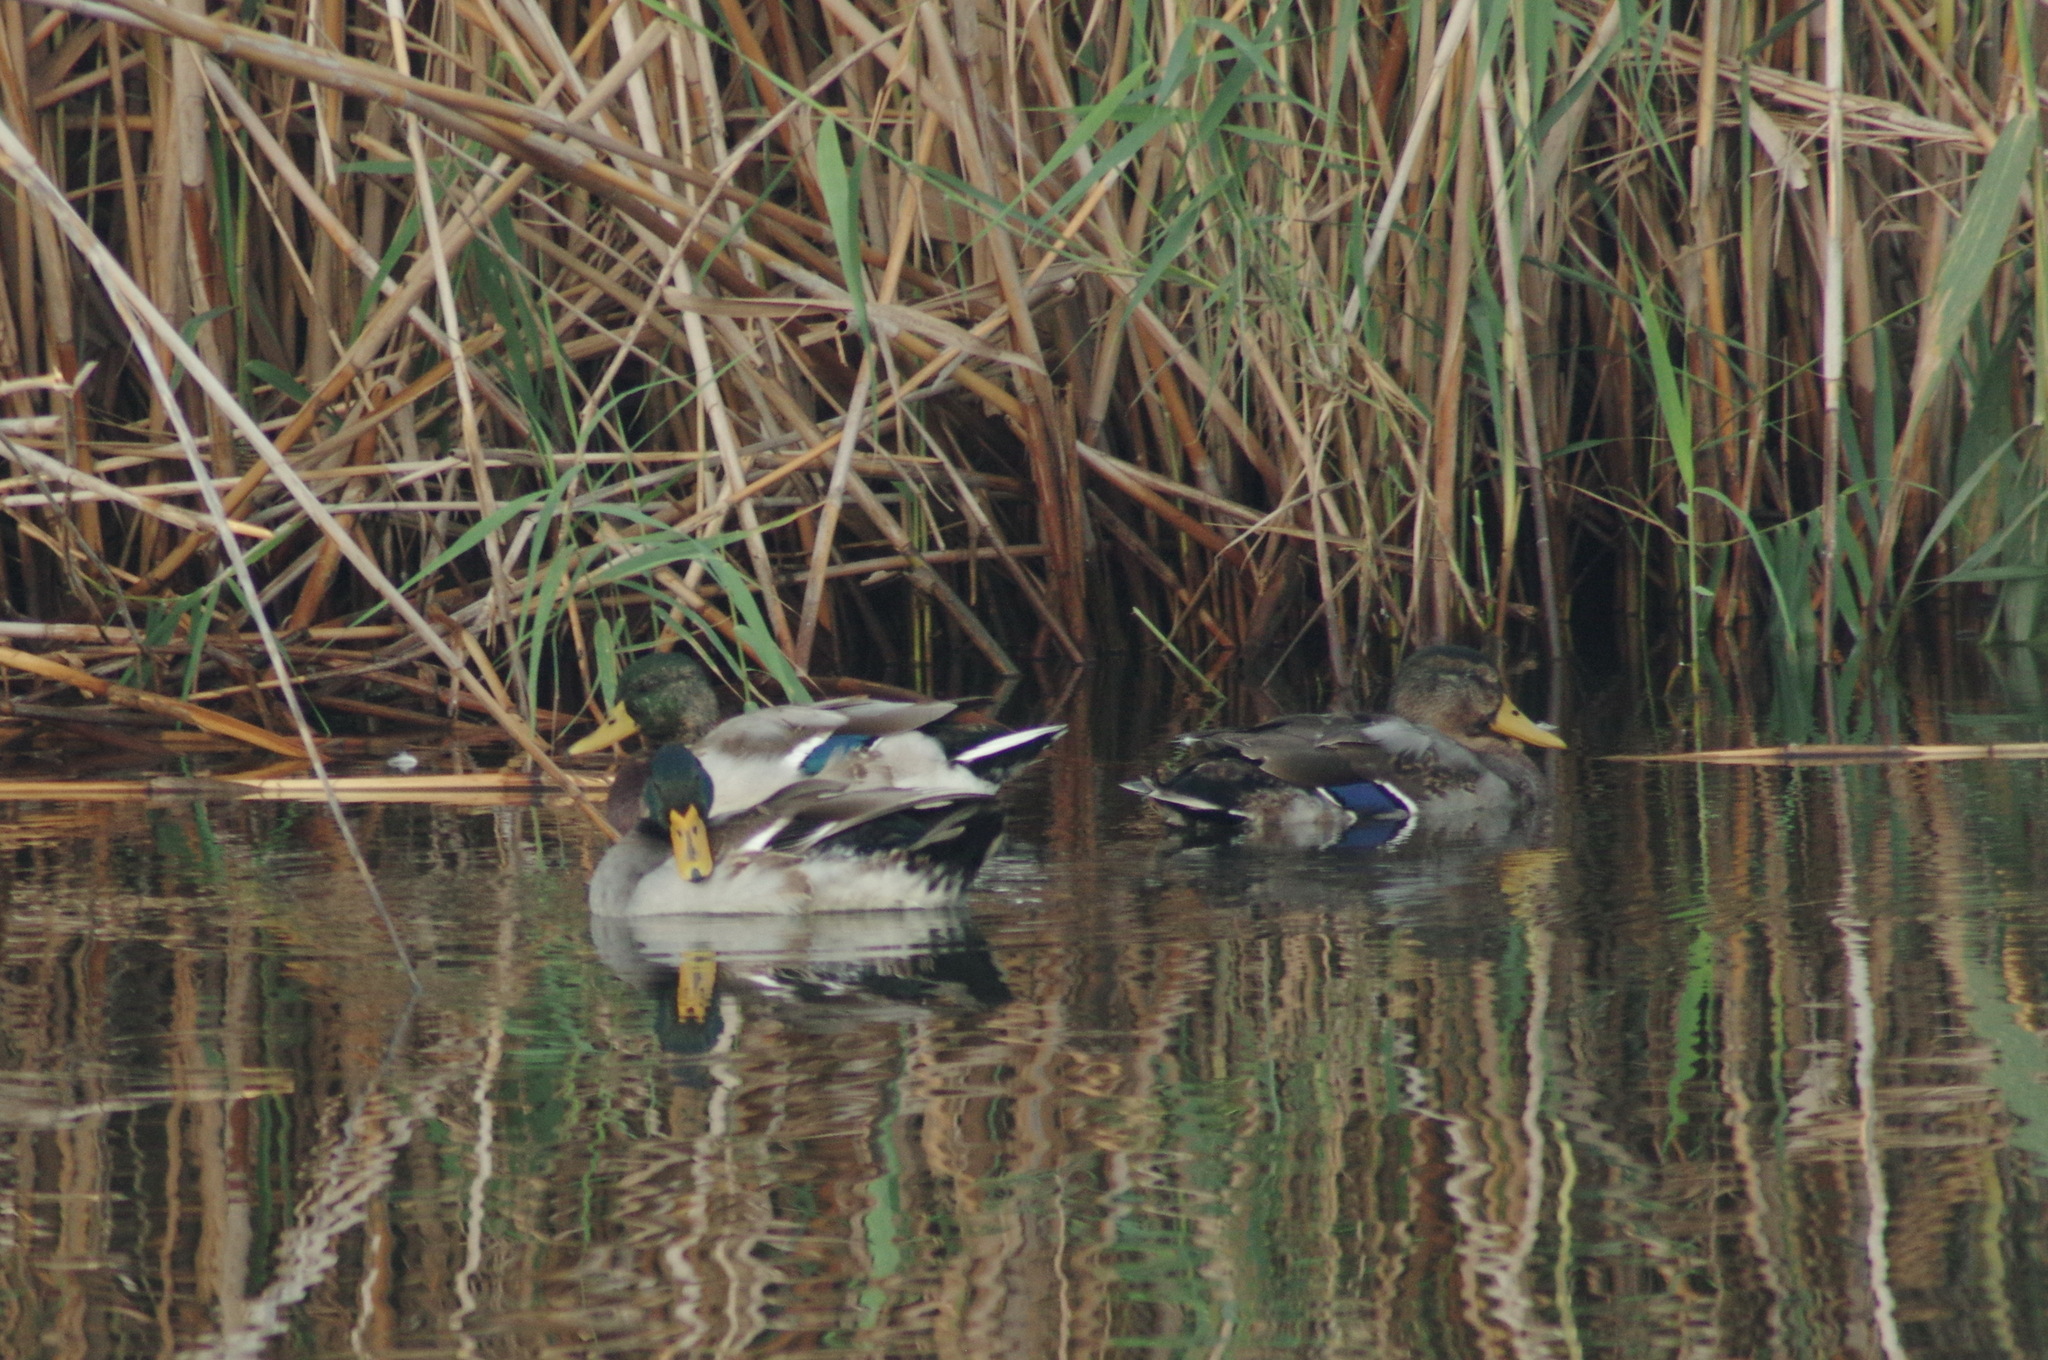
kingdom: Animalia
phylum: Chordata
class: Aves
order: Anseriformes
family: Anatidae
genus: Anas
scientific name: Anas platyrhynchos
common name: Mallard
